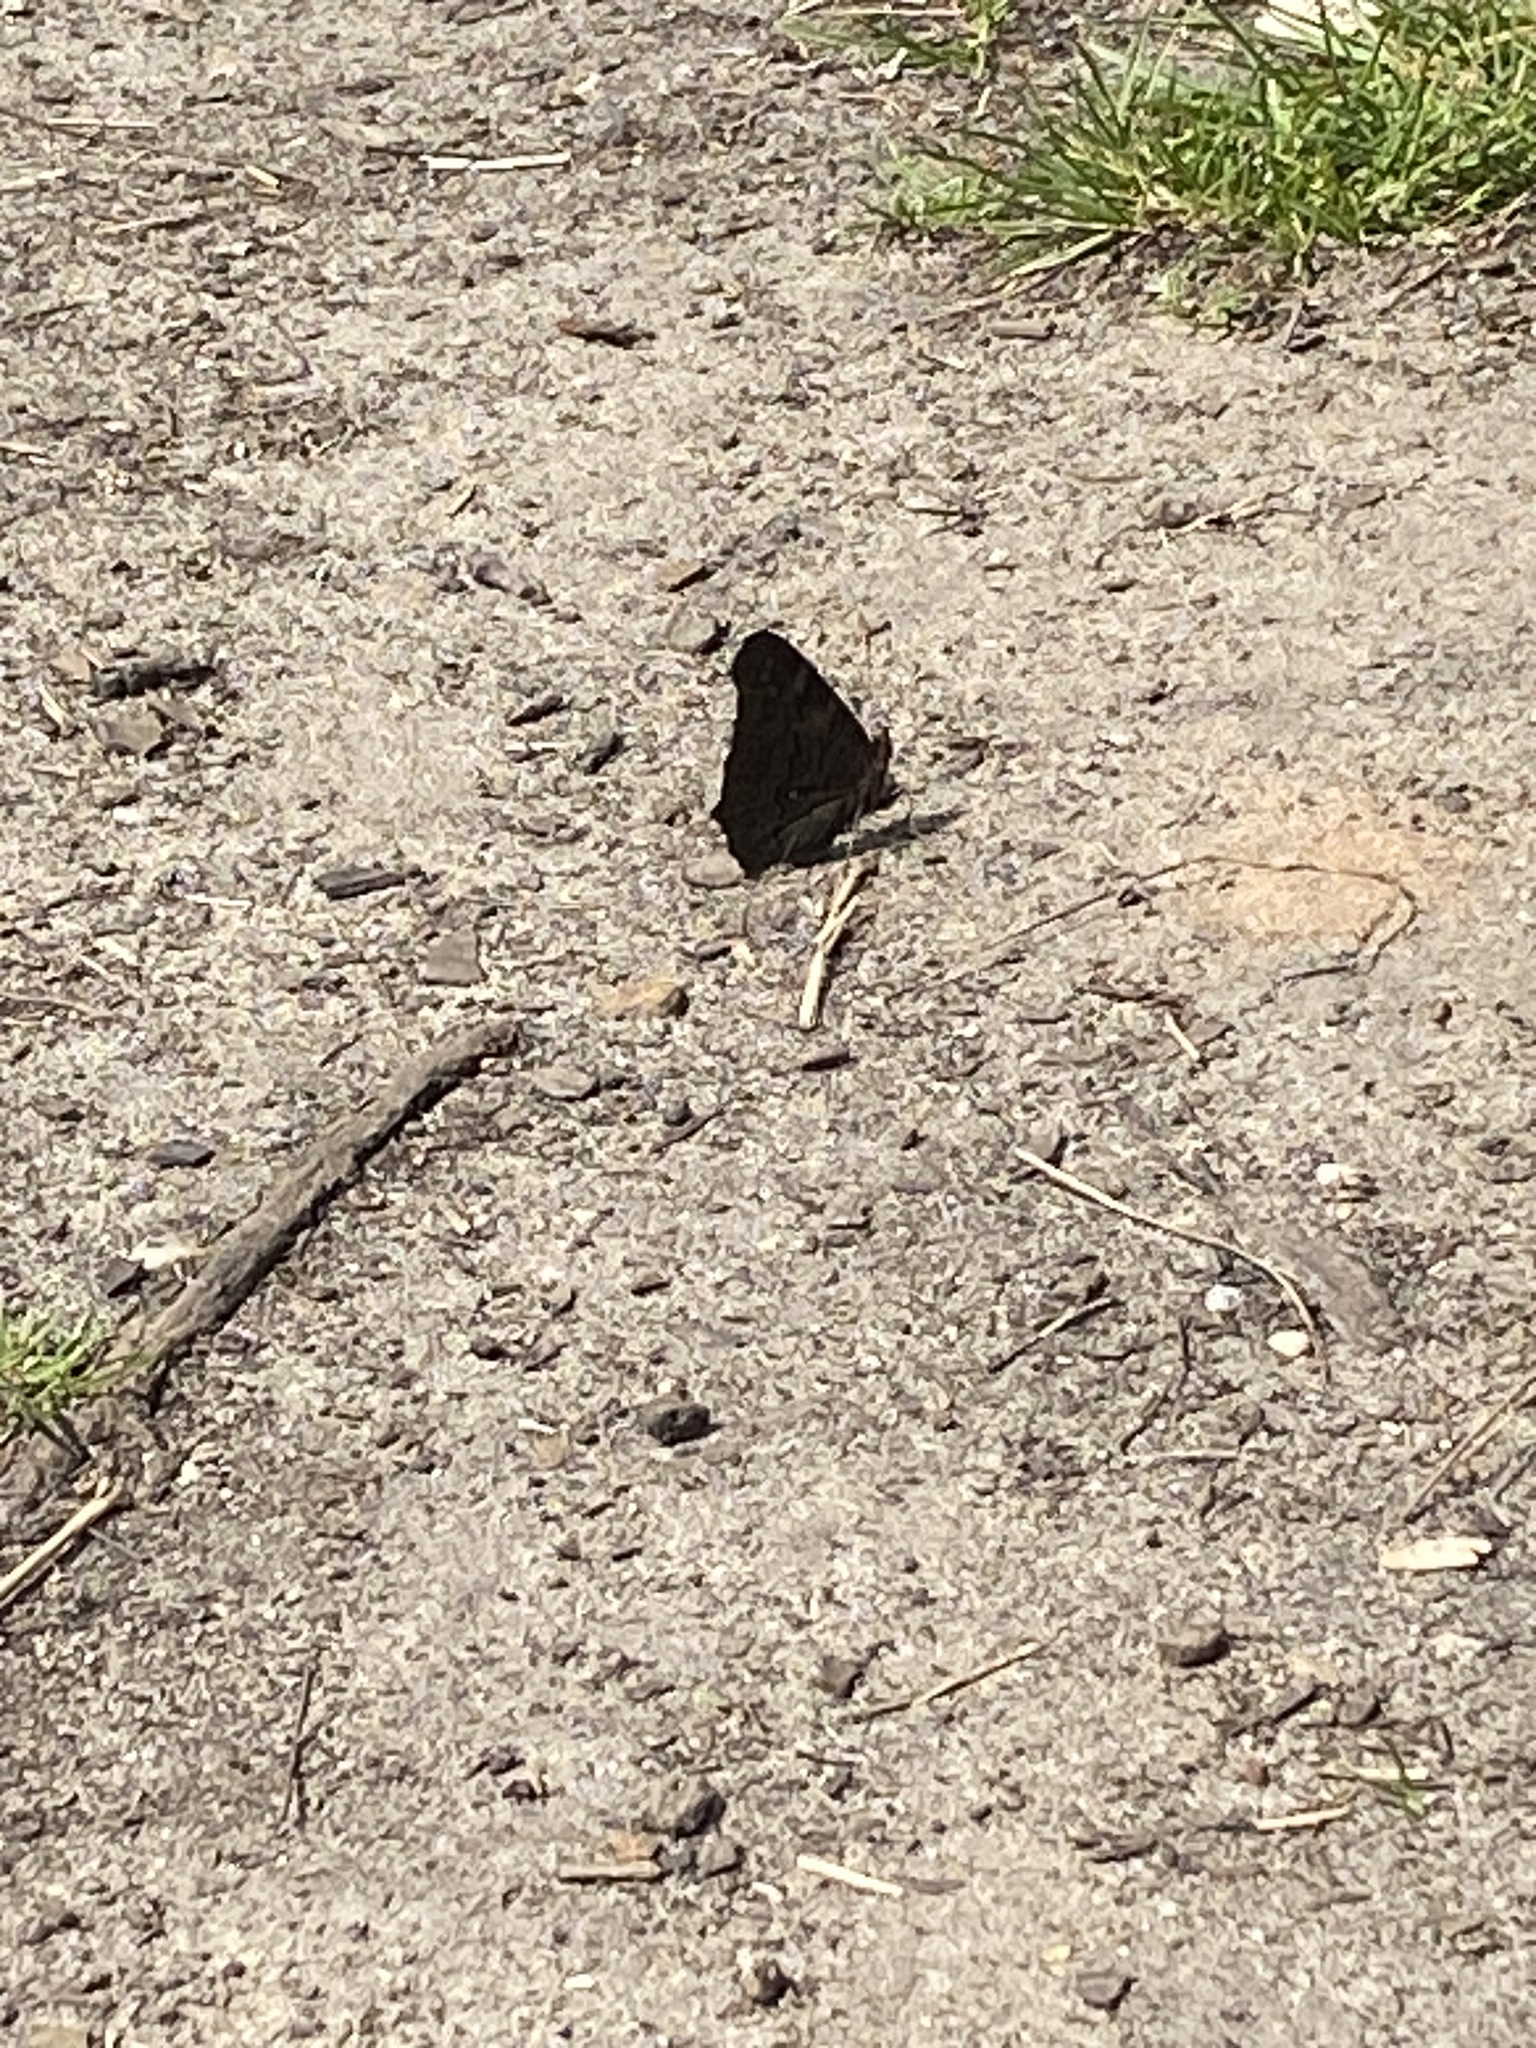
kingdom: Animalia
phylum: Arthropoda
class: Insecta
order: Lepidoptera
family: Nymphalidae
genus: Aglais
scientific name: Aglais io
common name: Peacock
